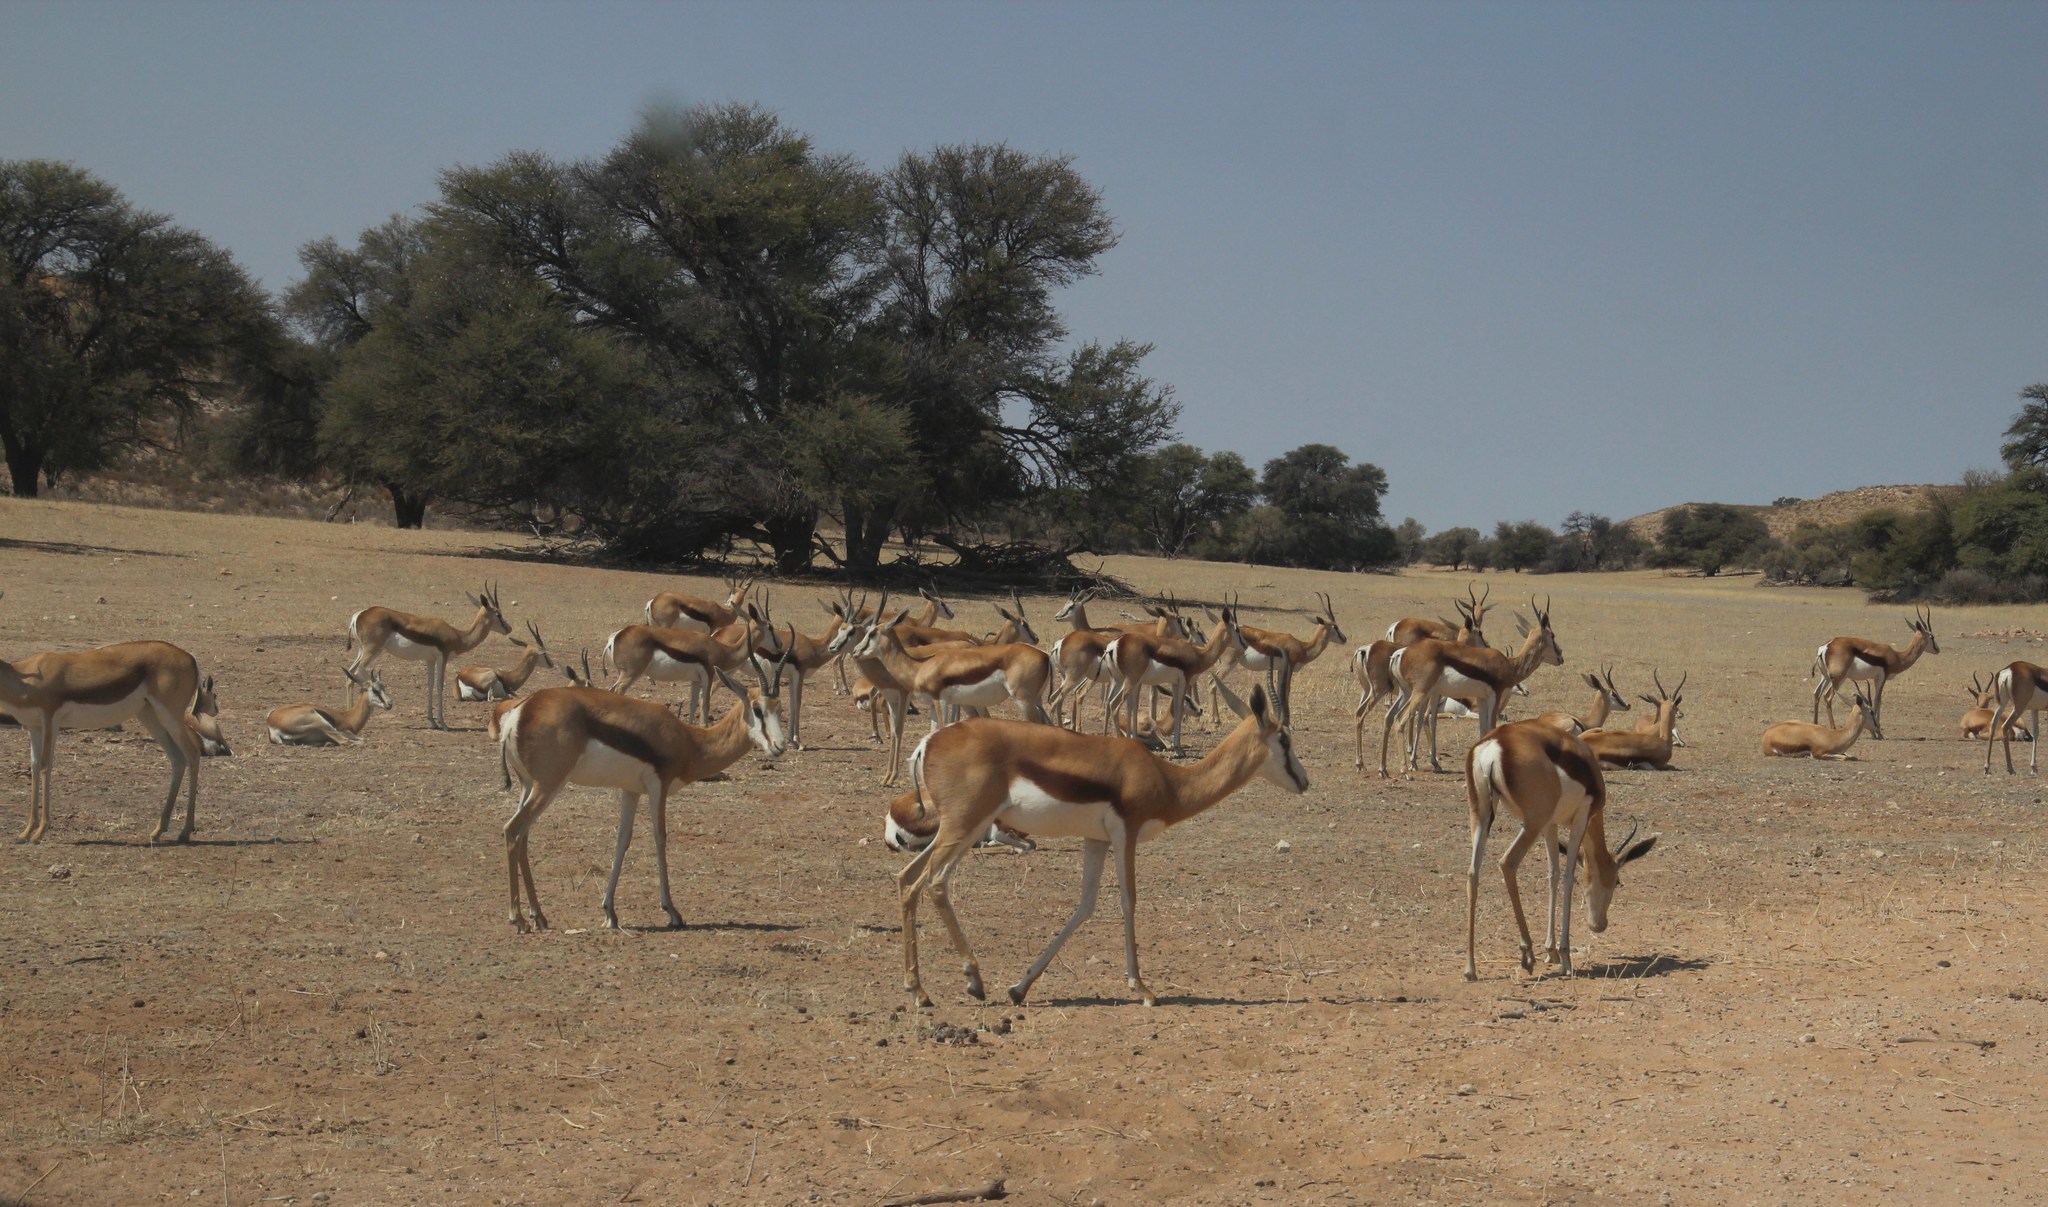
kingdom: Animalia
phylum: Chordata
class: Mammalia
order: Artiodactyla
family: Bovidae
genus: Antidorcas
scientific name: Antidorcas marsupialis
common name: Springbok
